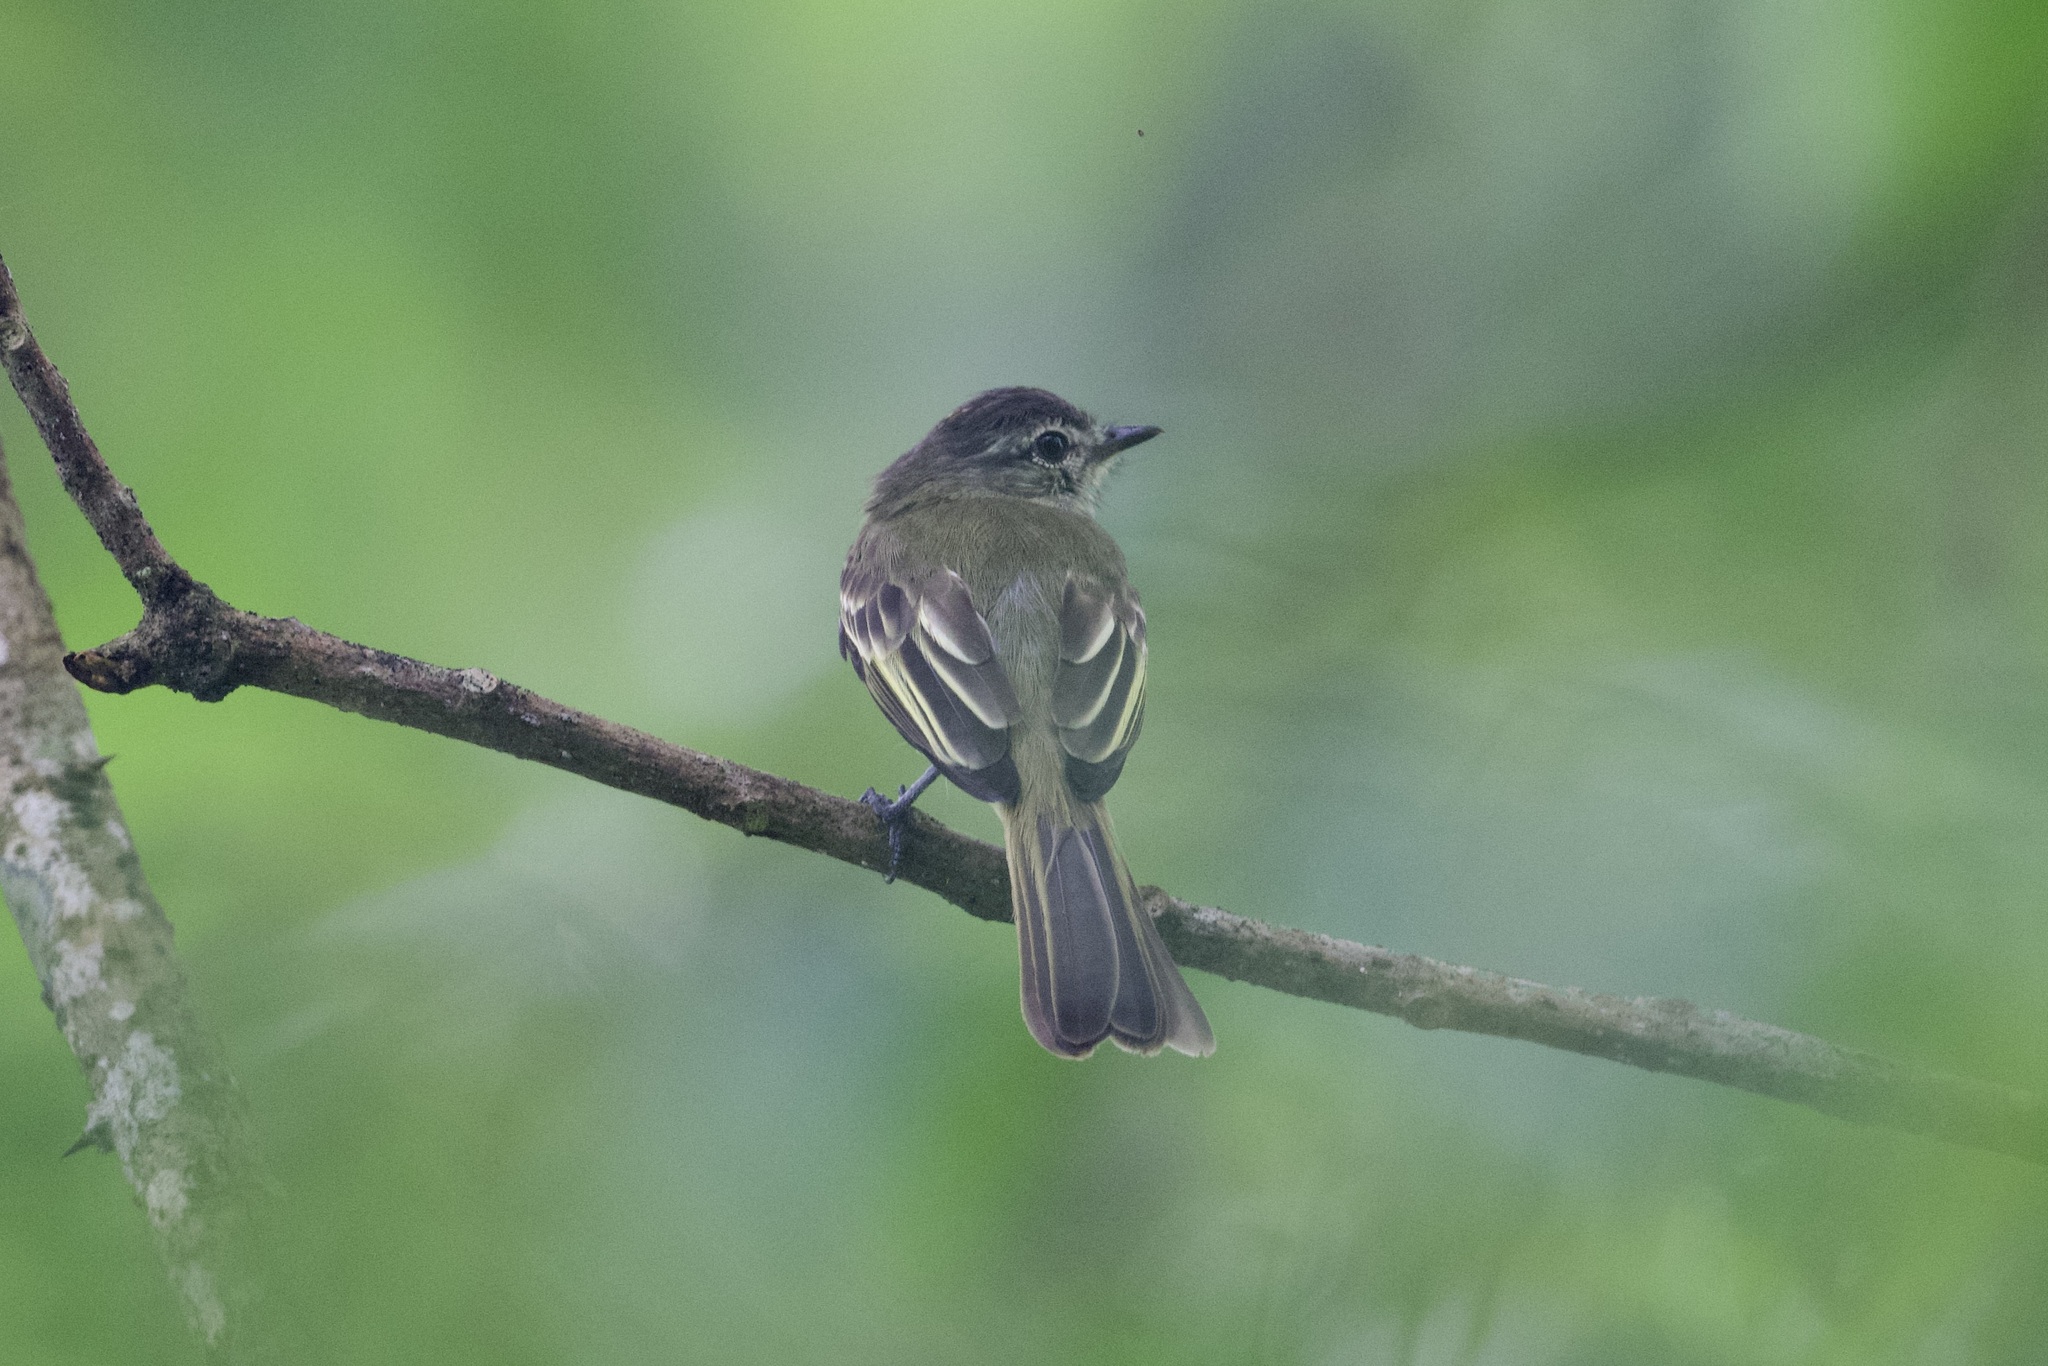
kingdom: Animalia
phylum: Chordata
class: Aves
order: Passeriformes
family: Tyrannidae
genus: Tyrannulus
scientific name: Tyrannulus elatus
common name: Yellow-crowned tyrannulet
